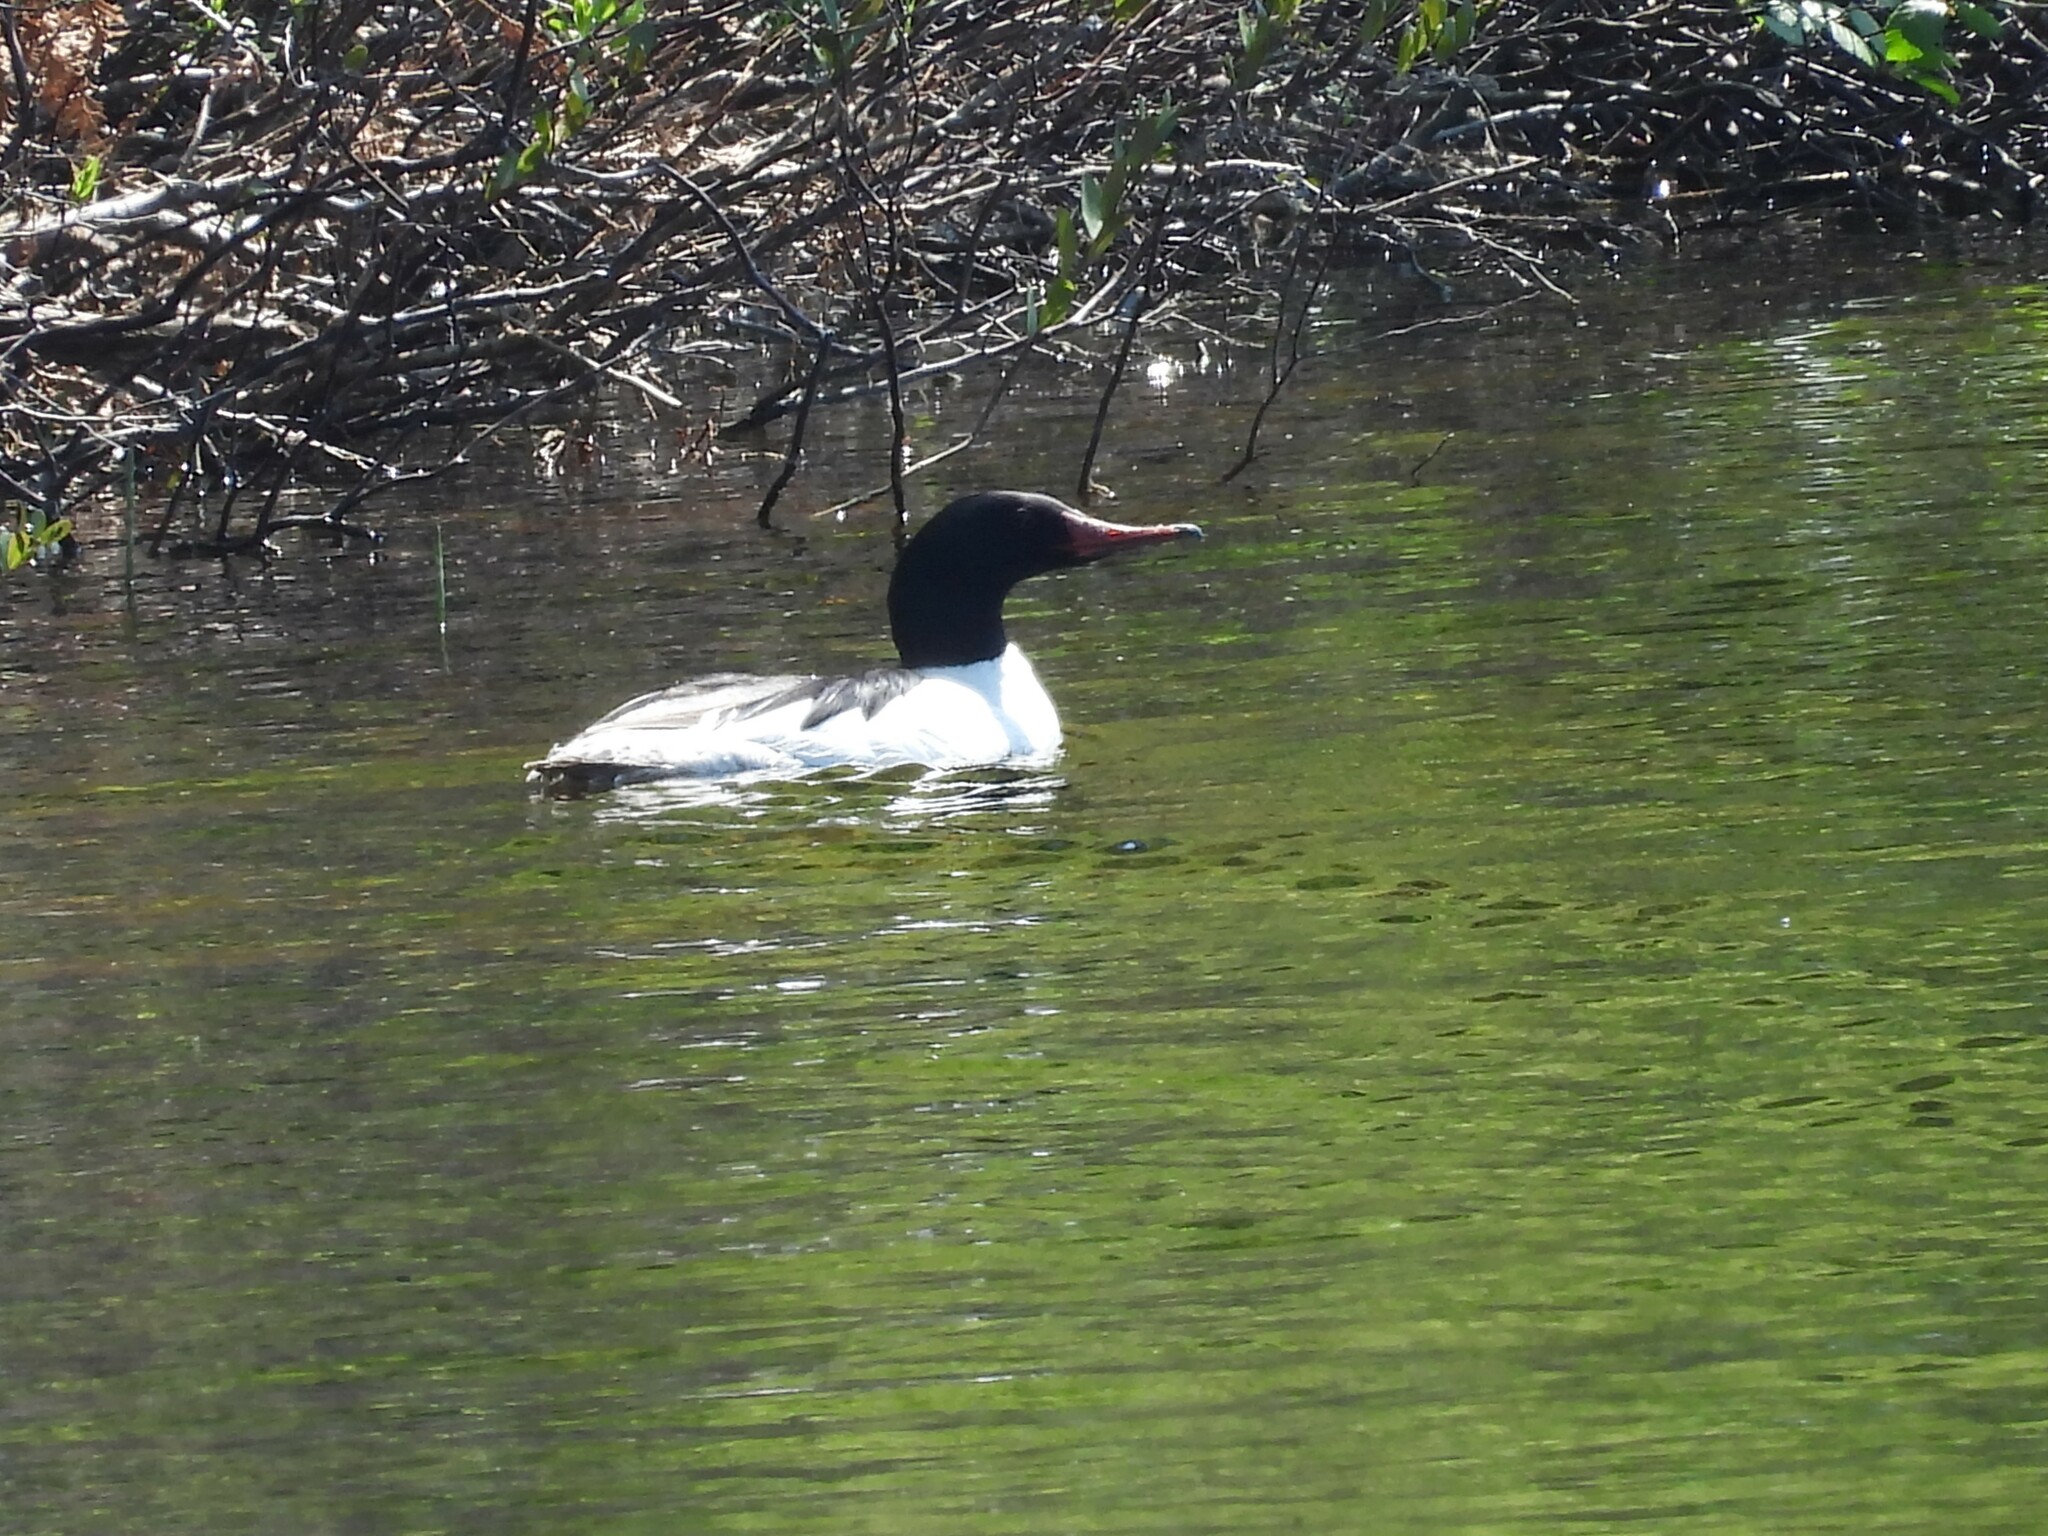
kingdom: Animalia
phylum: Chordata
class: Aves
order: Anseriformes
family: Anatidae
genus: Mergus
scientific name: Mergus merganser
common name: Common merganser
